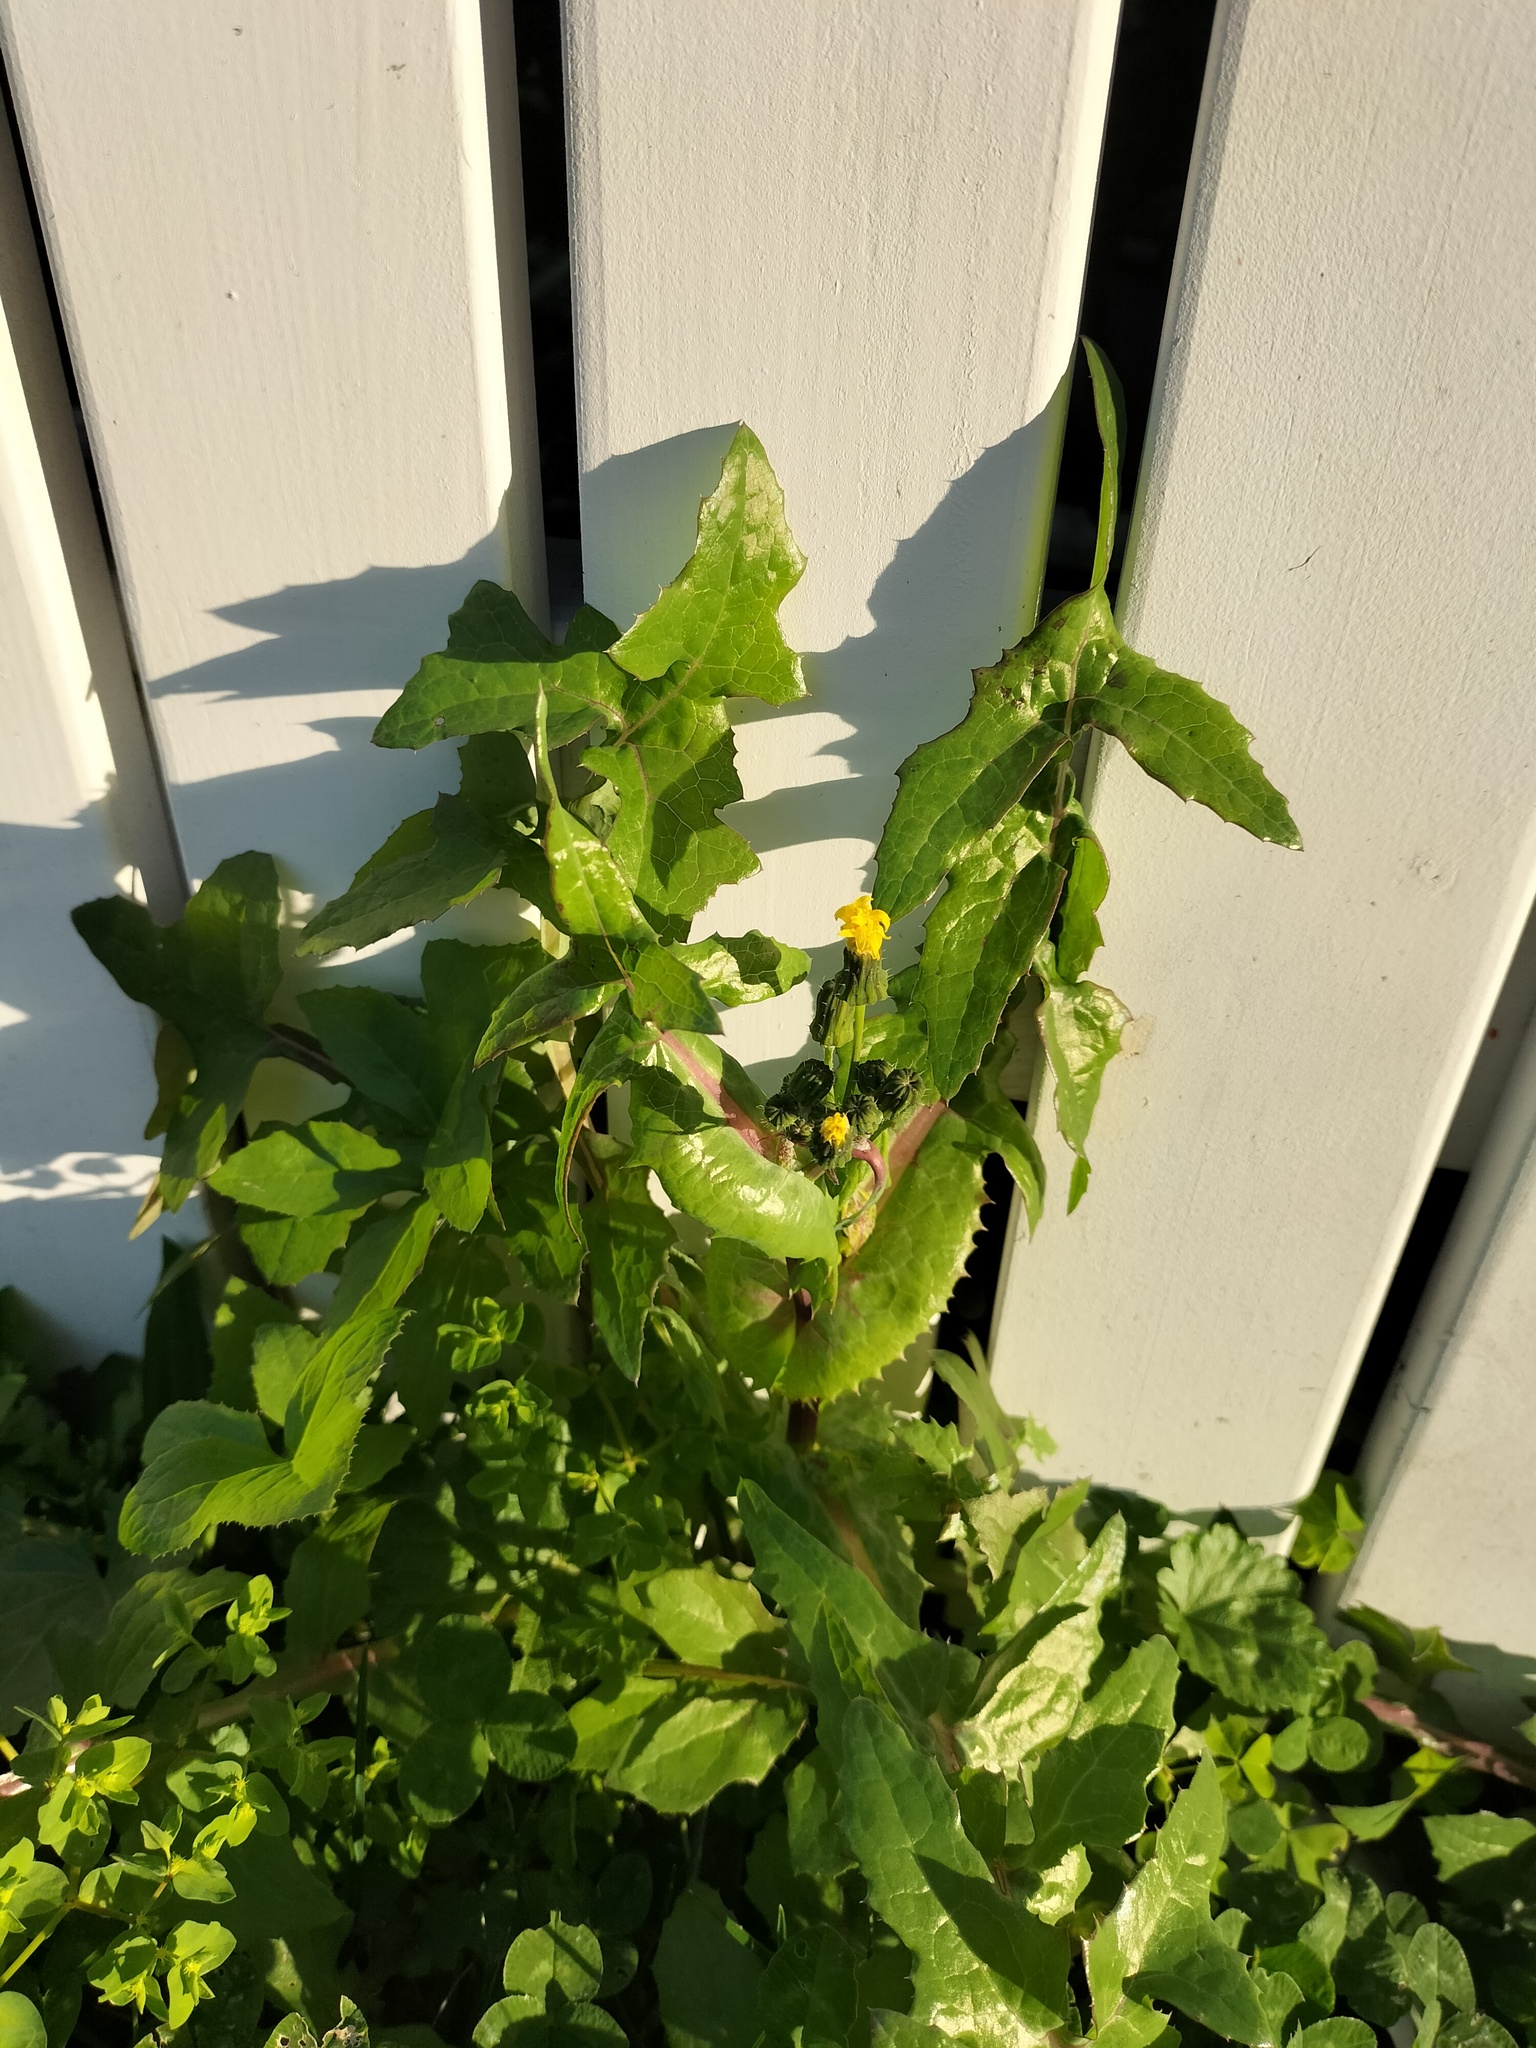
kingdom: Plantae
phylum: Tracheophyta
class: Magnoliopsida
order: Asterales
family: Asteraceae
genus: Sonchus
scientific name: Sonchus oleraceus
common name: Common sowthistle
